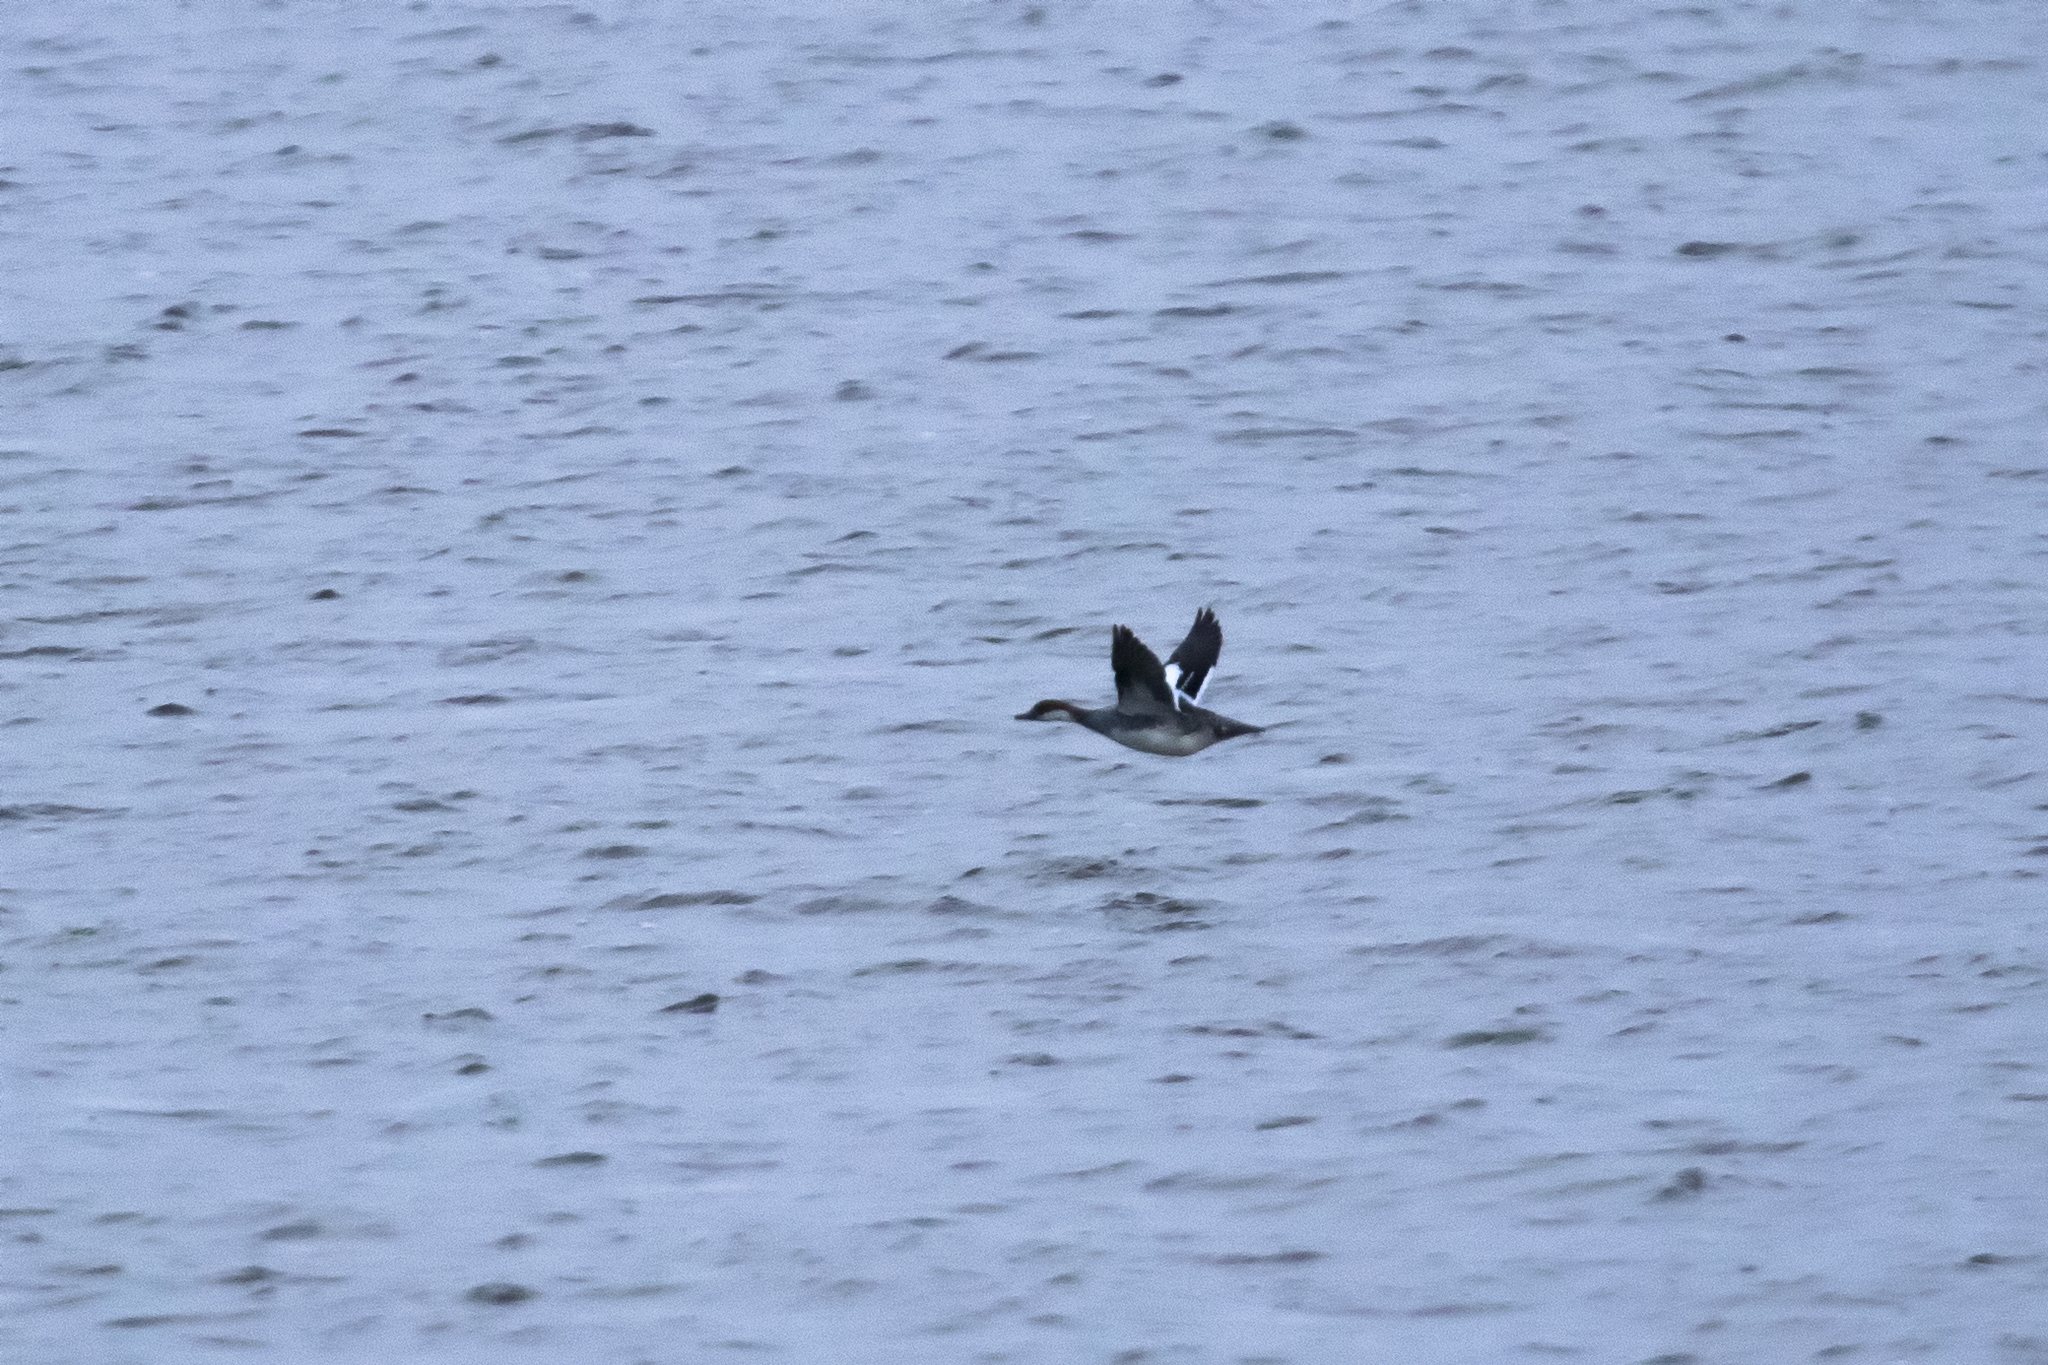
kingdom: Animalia
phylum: Chordata
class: Aves
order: Anseriformes
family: Anatidae
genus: Mergellus
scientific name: Mergellus albellus
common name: Smew
